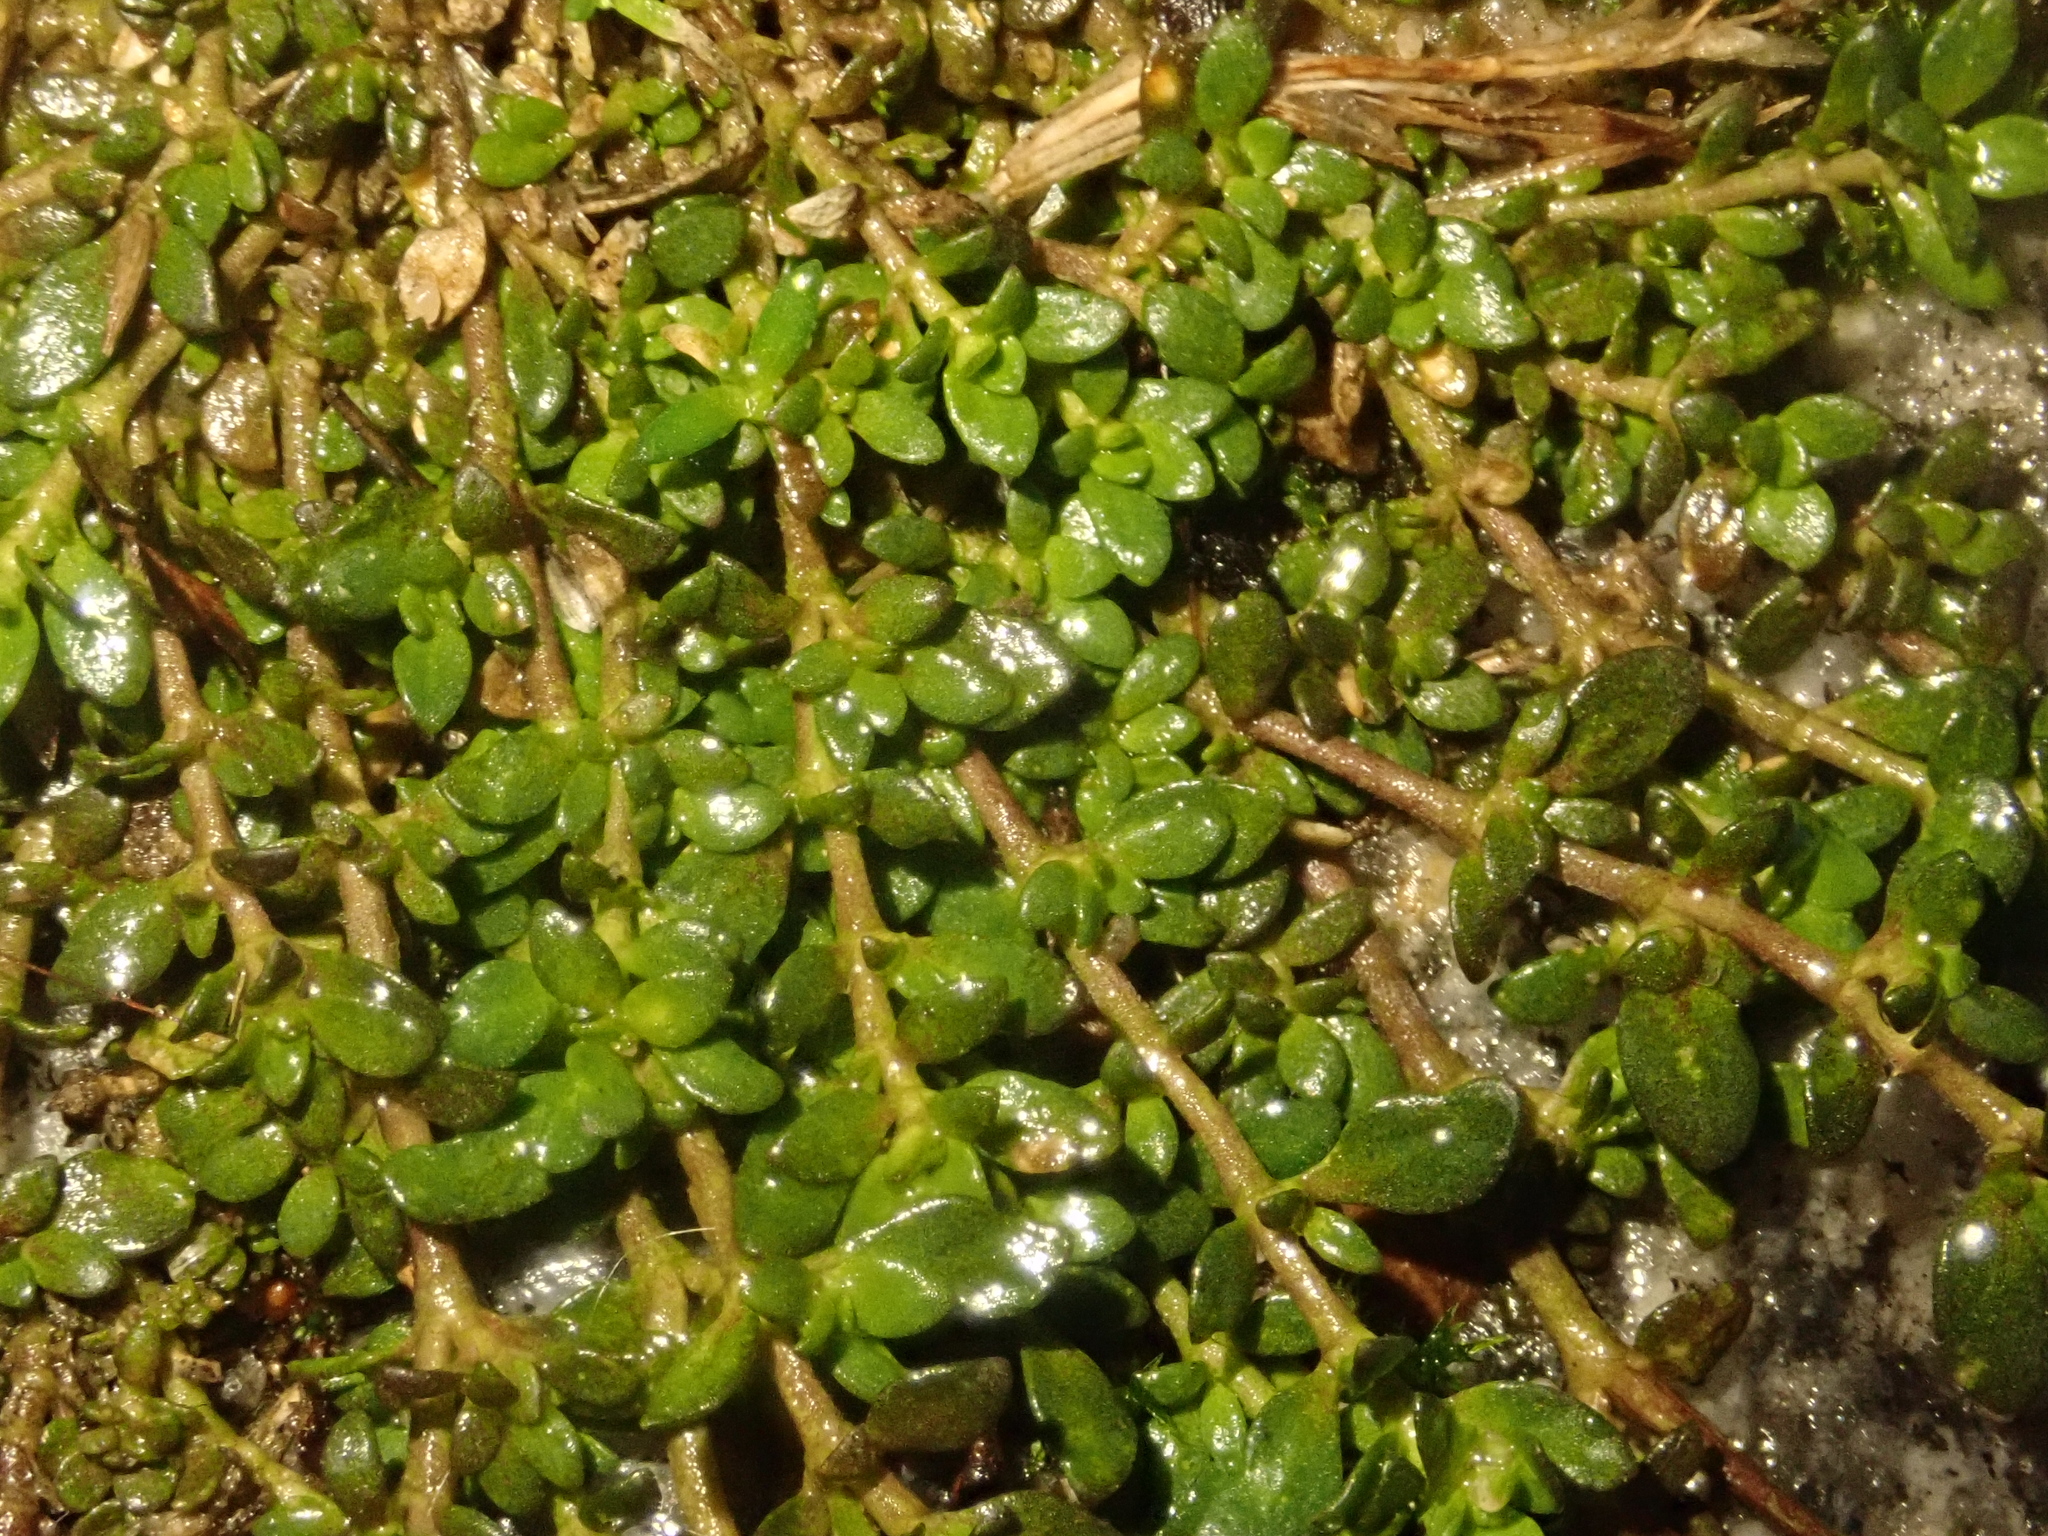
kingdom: Plantae
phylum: Tracheophyta
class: Magnoliopsida
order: Caryophyllales
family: Caryophyllaceae
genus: Herniaria
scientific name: Herniaria glabra
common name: Smooth rupturewort
